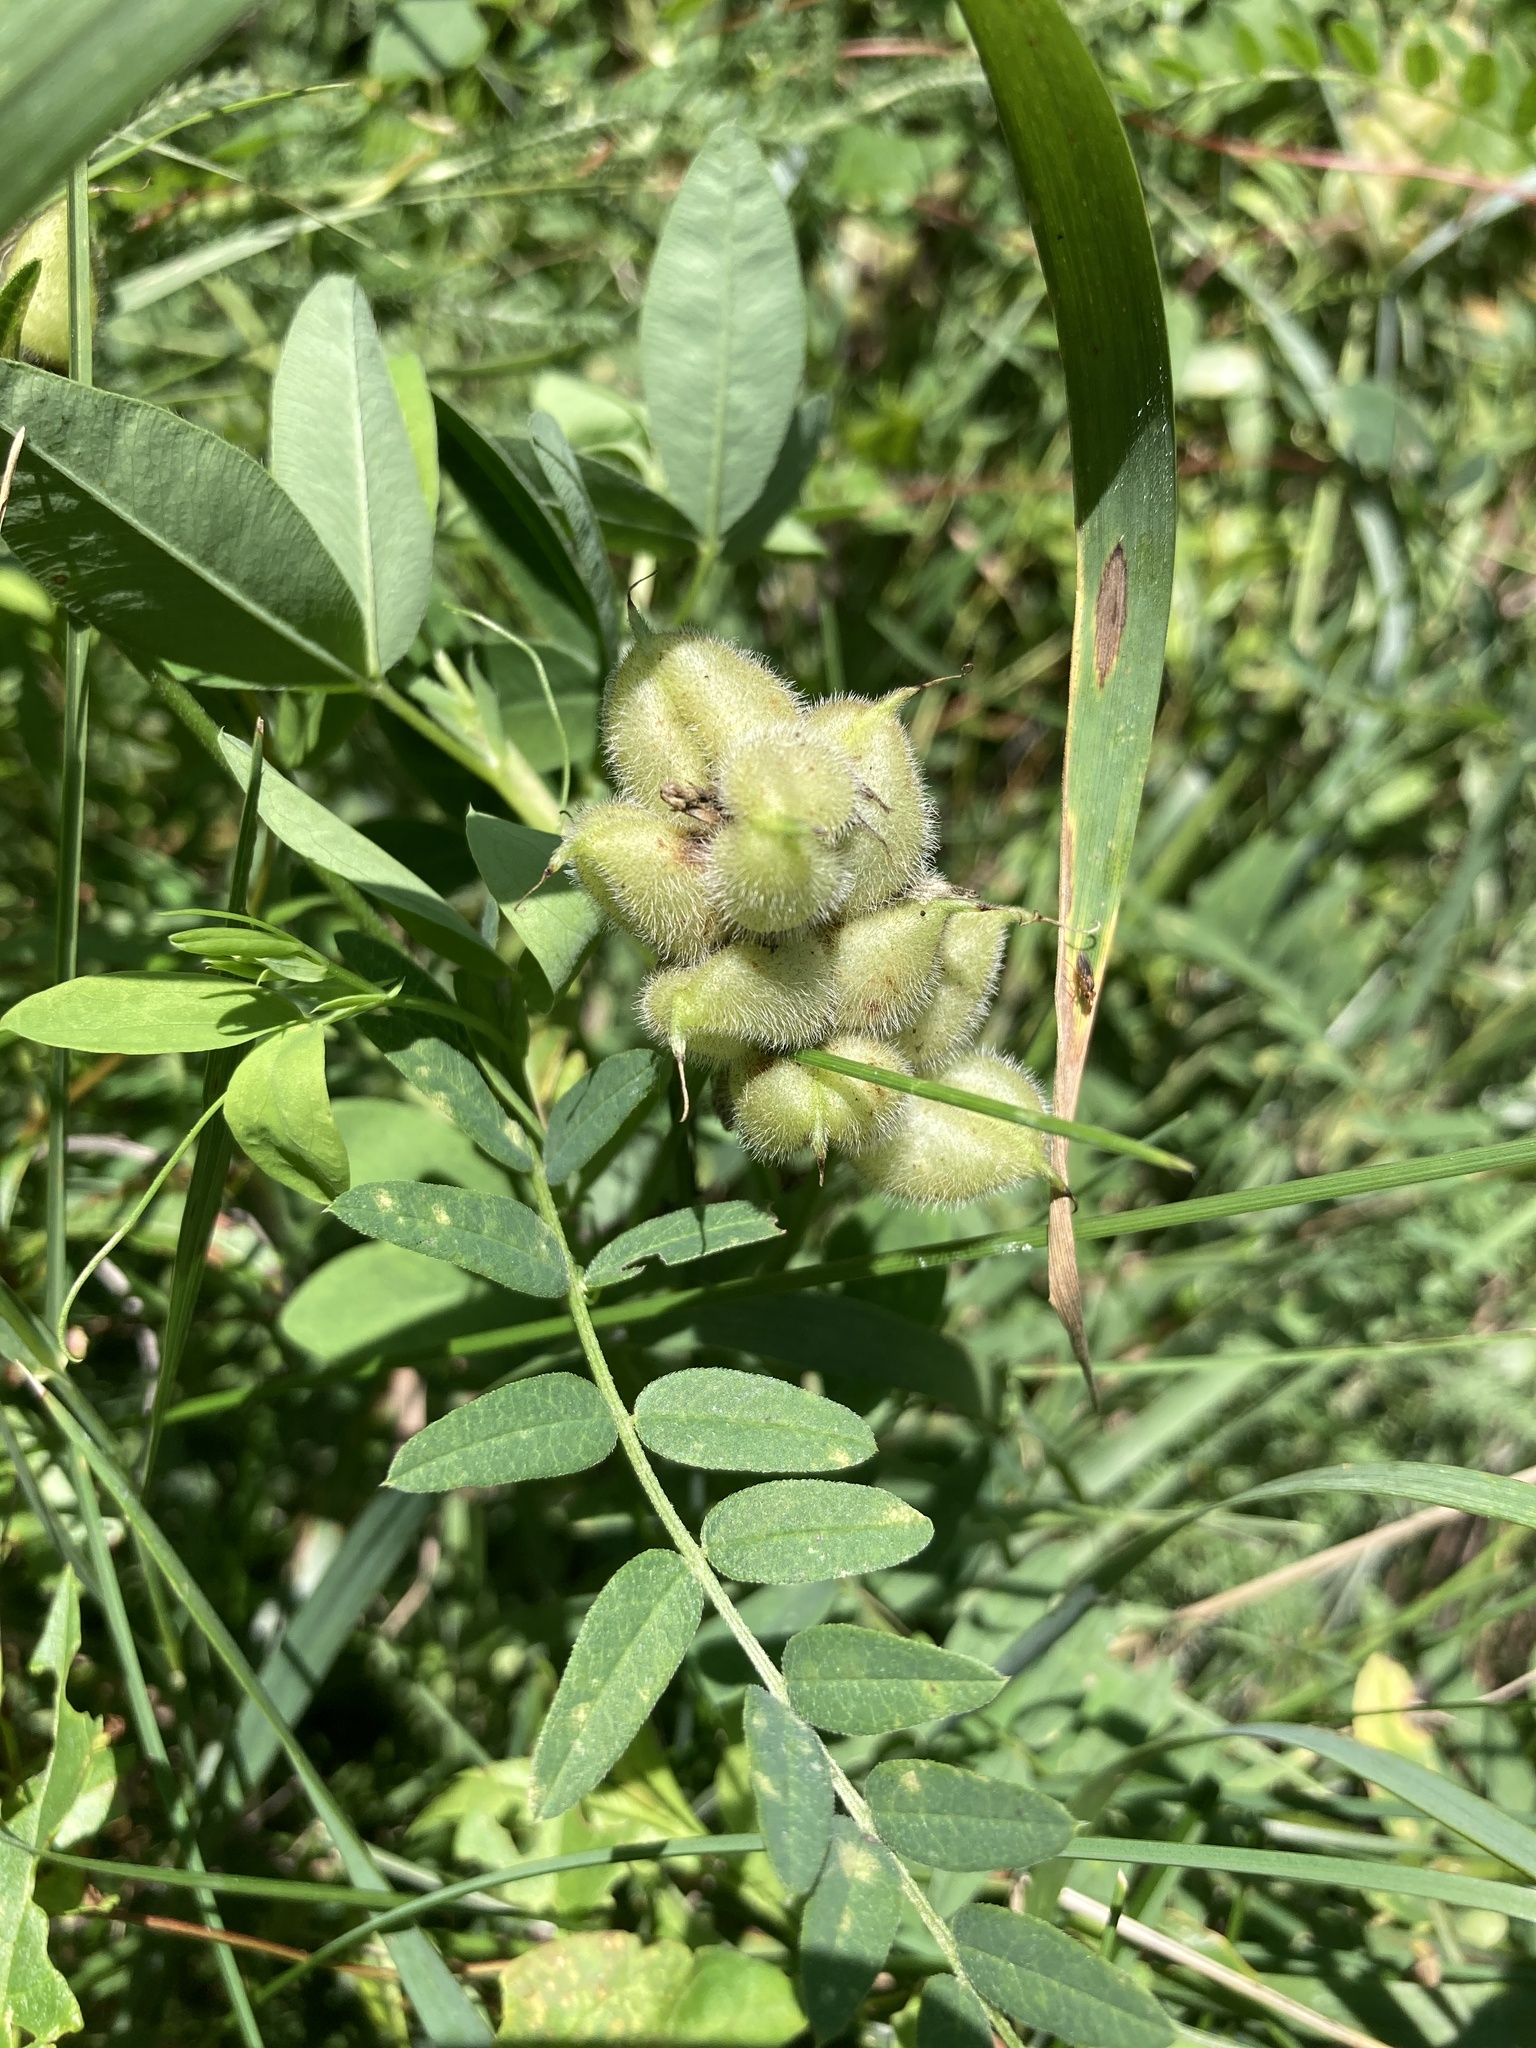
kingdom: Plantae
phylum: Tracheophyta
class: Magnoliopsida
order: Fabales
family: Fabaceae
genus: Astragalus
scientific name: Astragalus cicer
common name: Chick-pea milk-vetch
